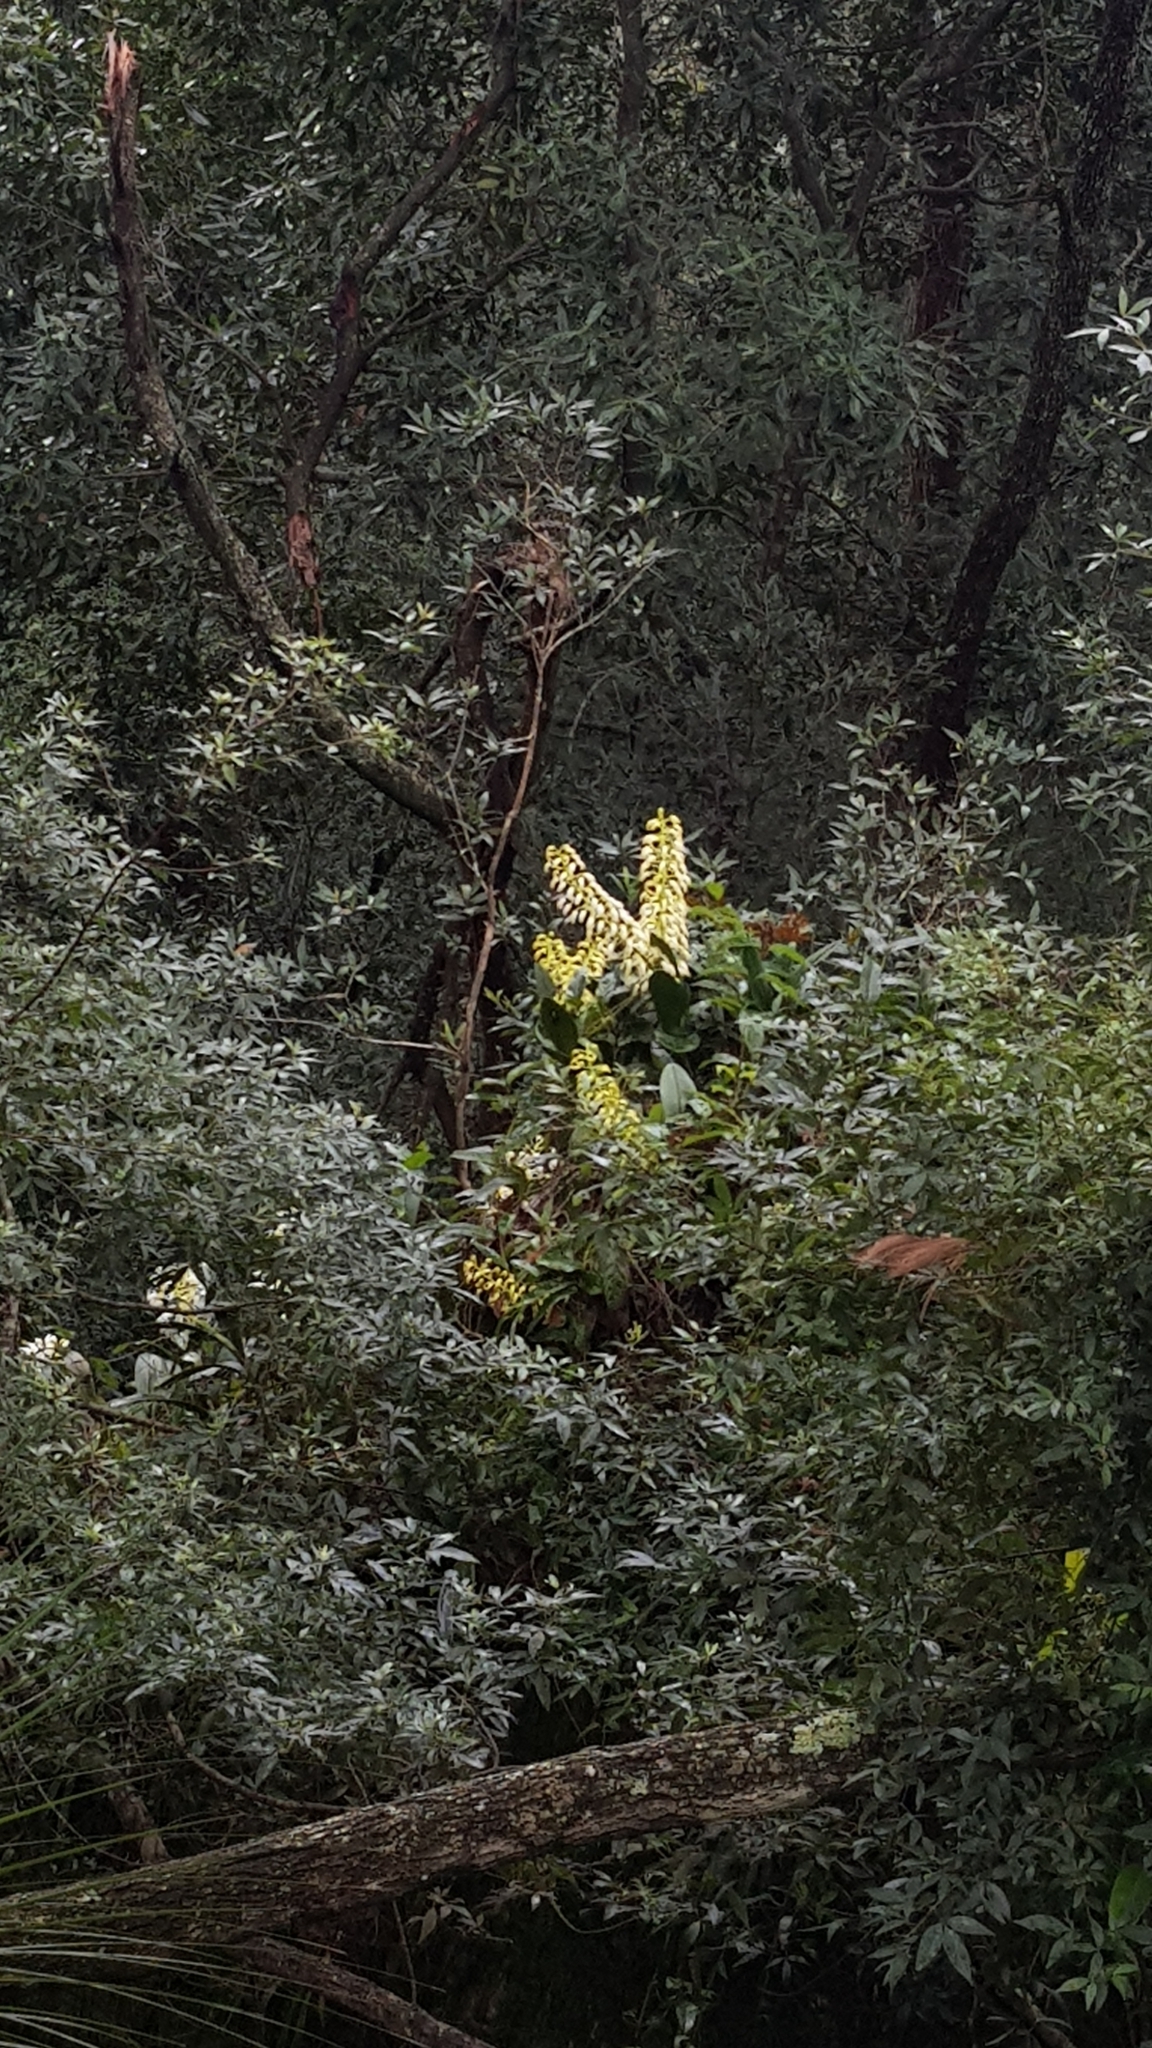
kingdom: Plantae
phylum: Tracheophyta
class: Liliopsida
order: Asparagales
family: Orchidaceae
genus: Dendrobium
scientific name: Dendrobium speciosum
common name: Rock-lily
